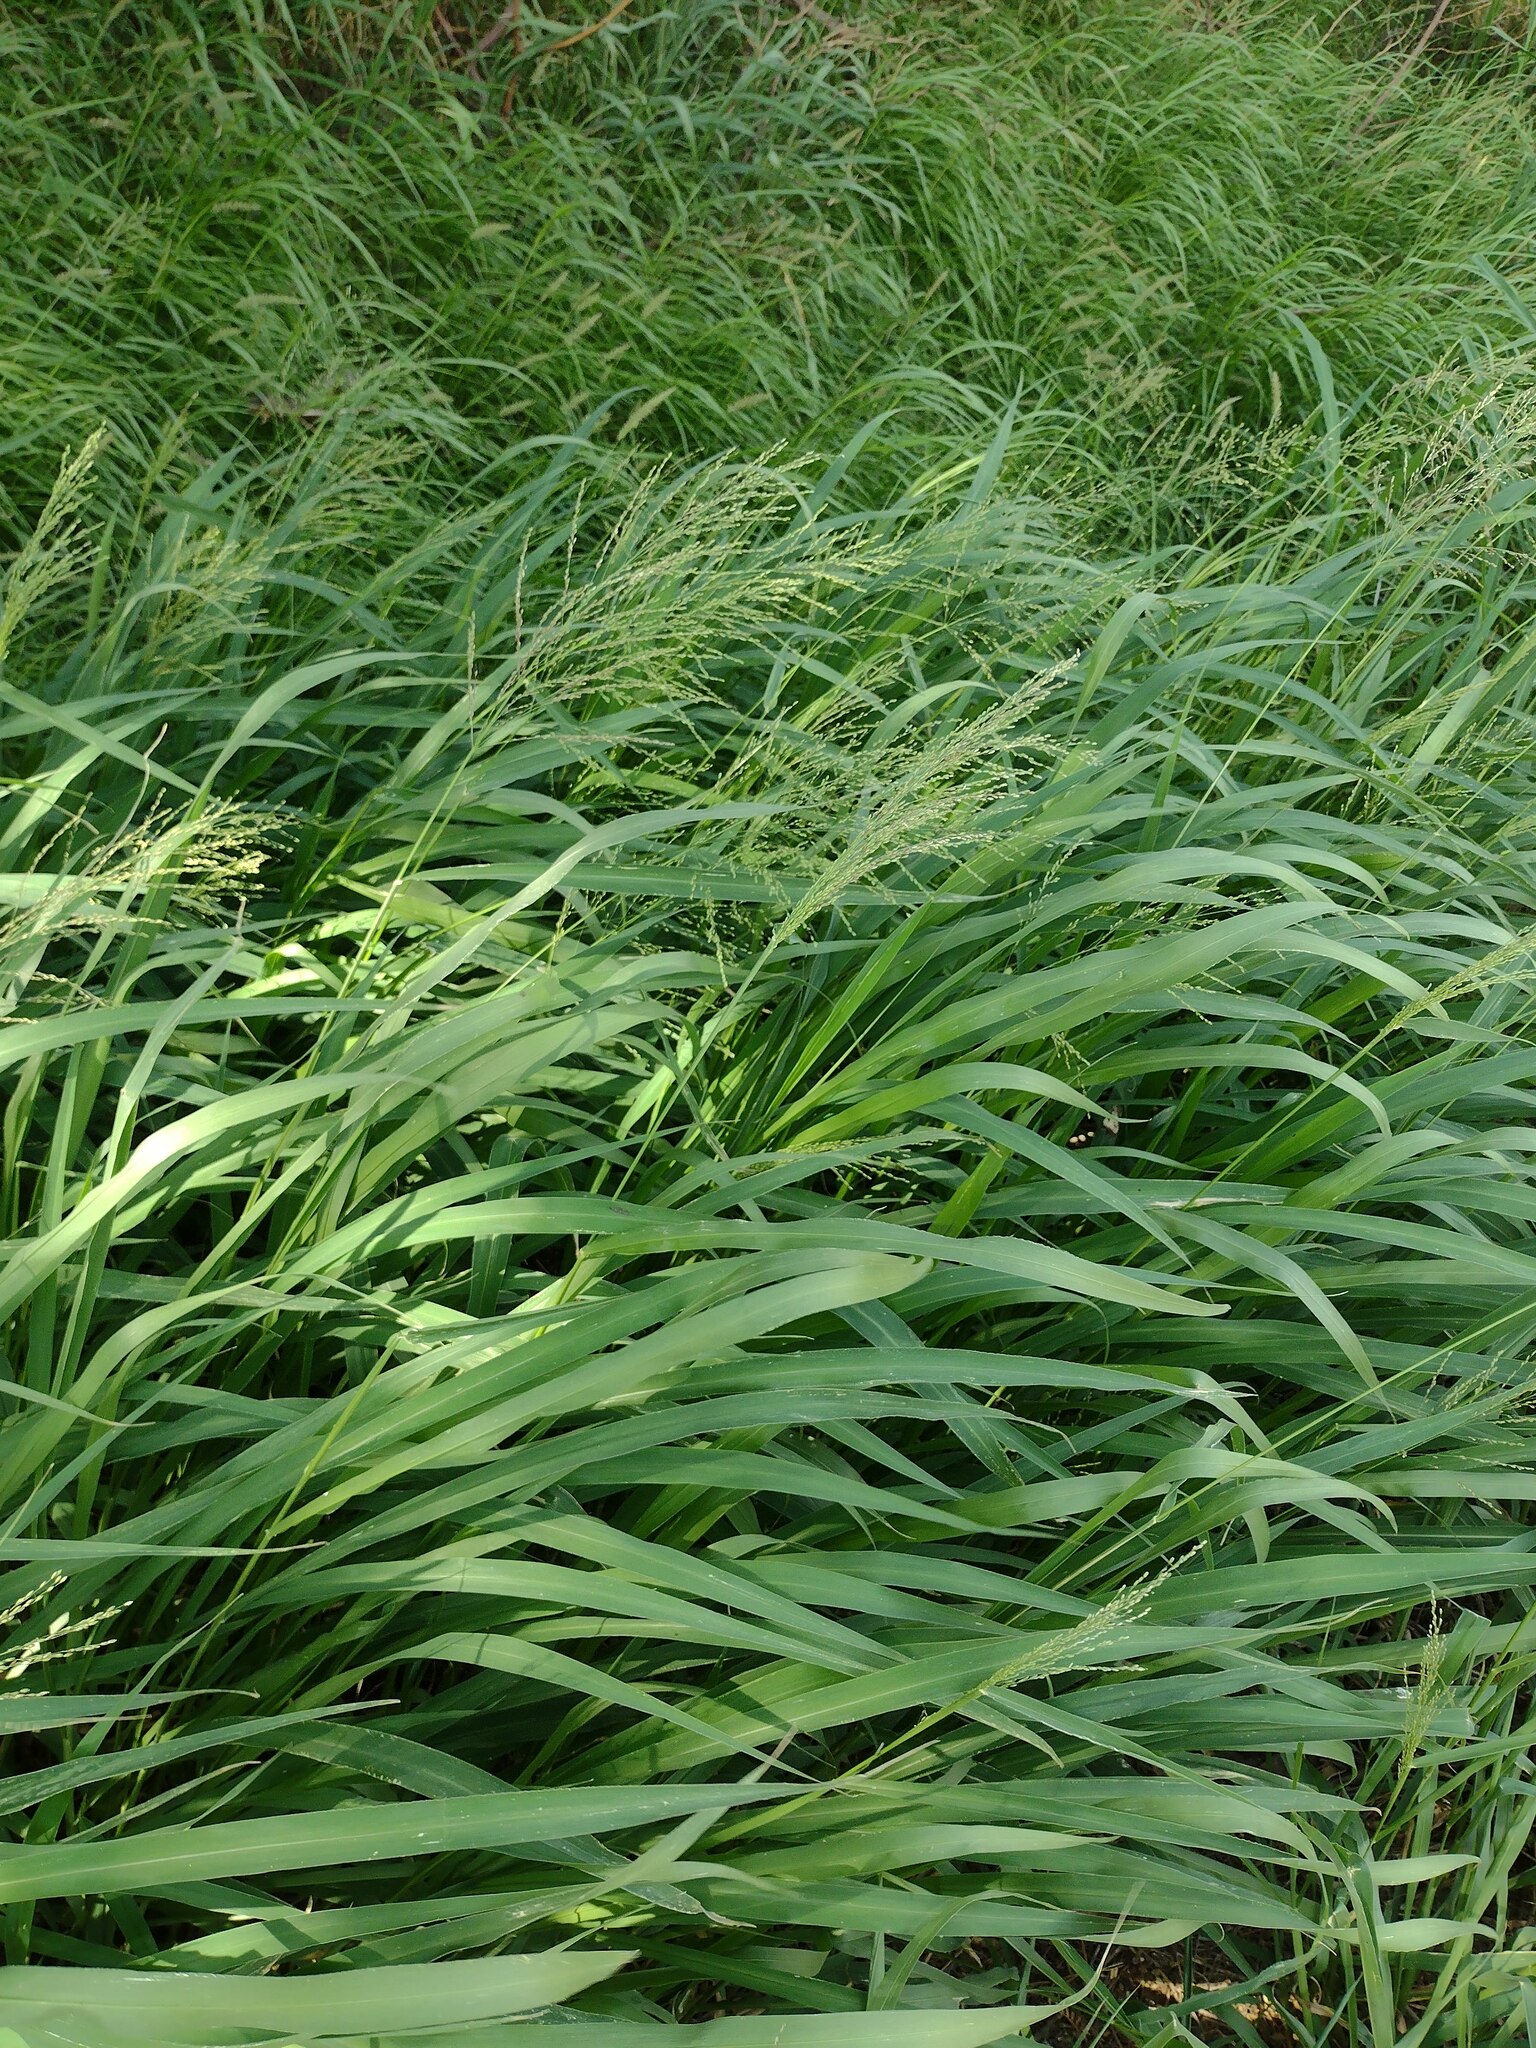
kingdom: Plantae
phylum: Tracheophyta
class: Liliopsida
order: Poales
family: Poaceae
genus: Megathyrsus
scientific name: Megathyrsus maximus
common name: Guineagrass
